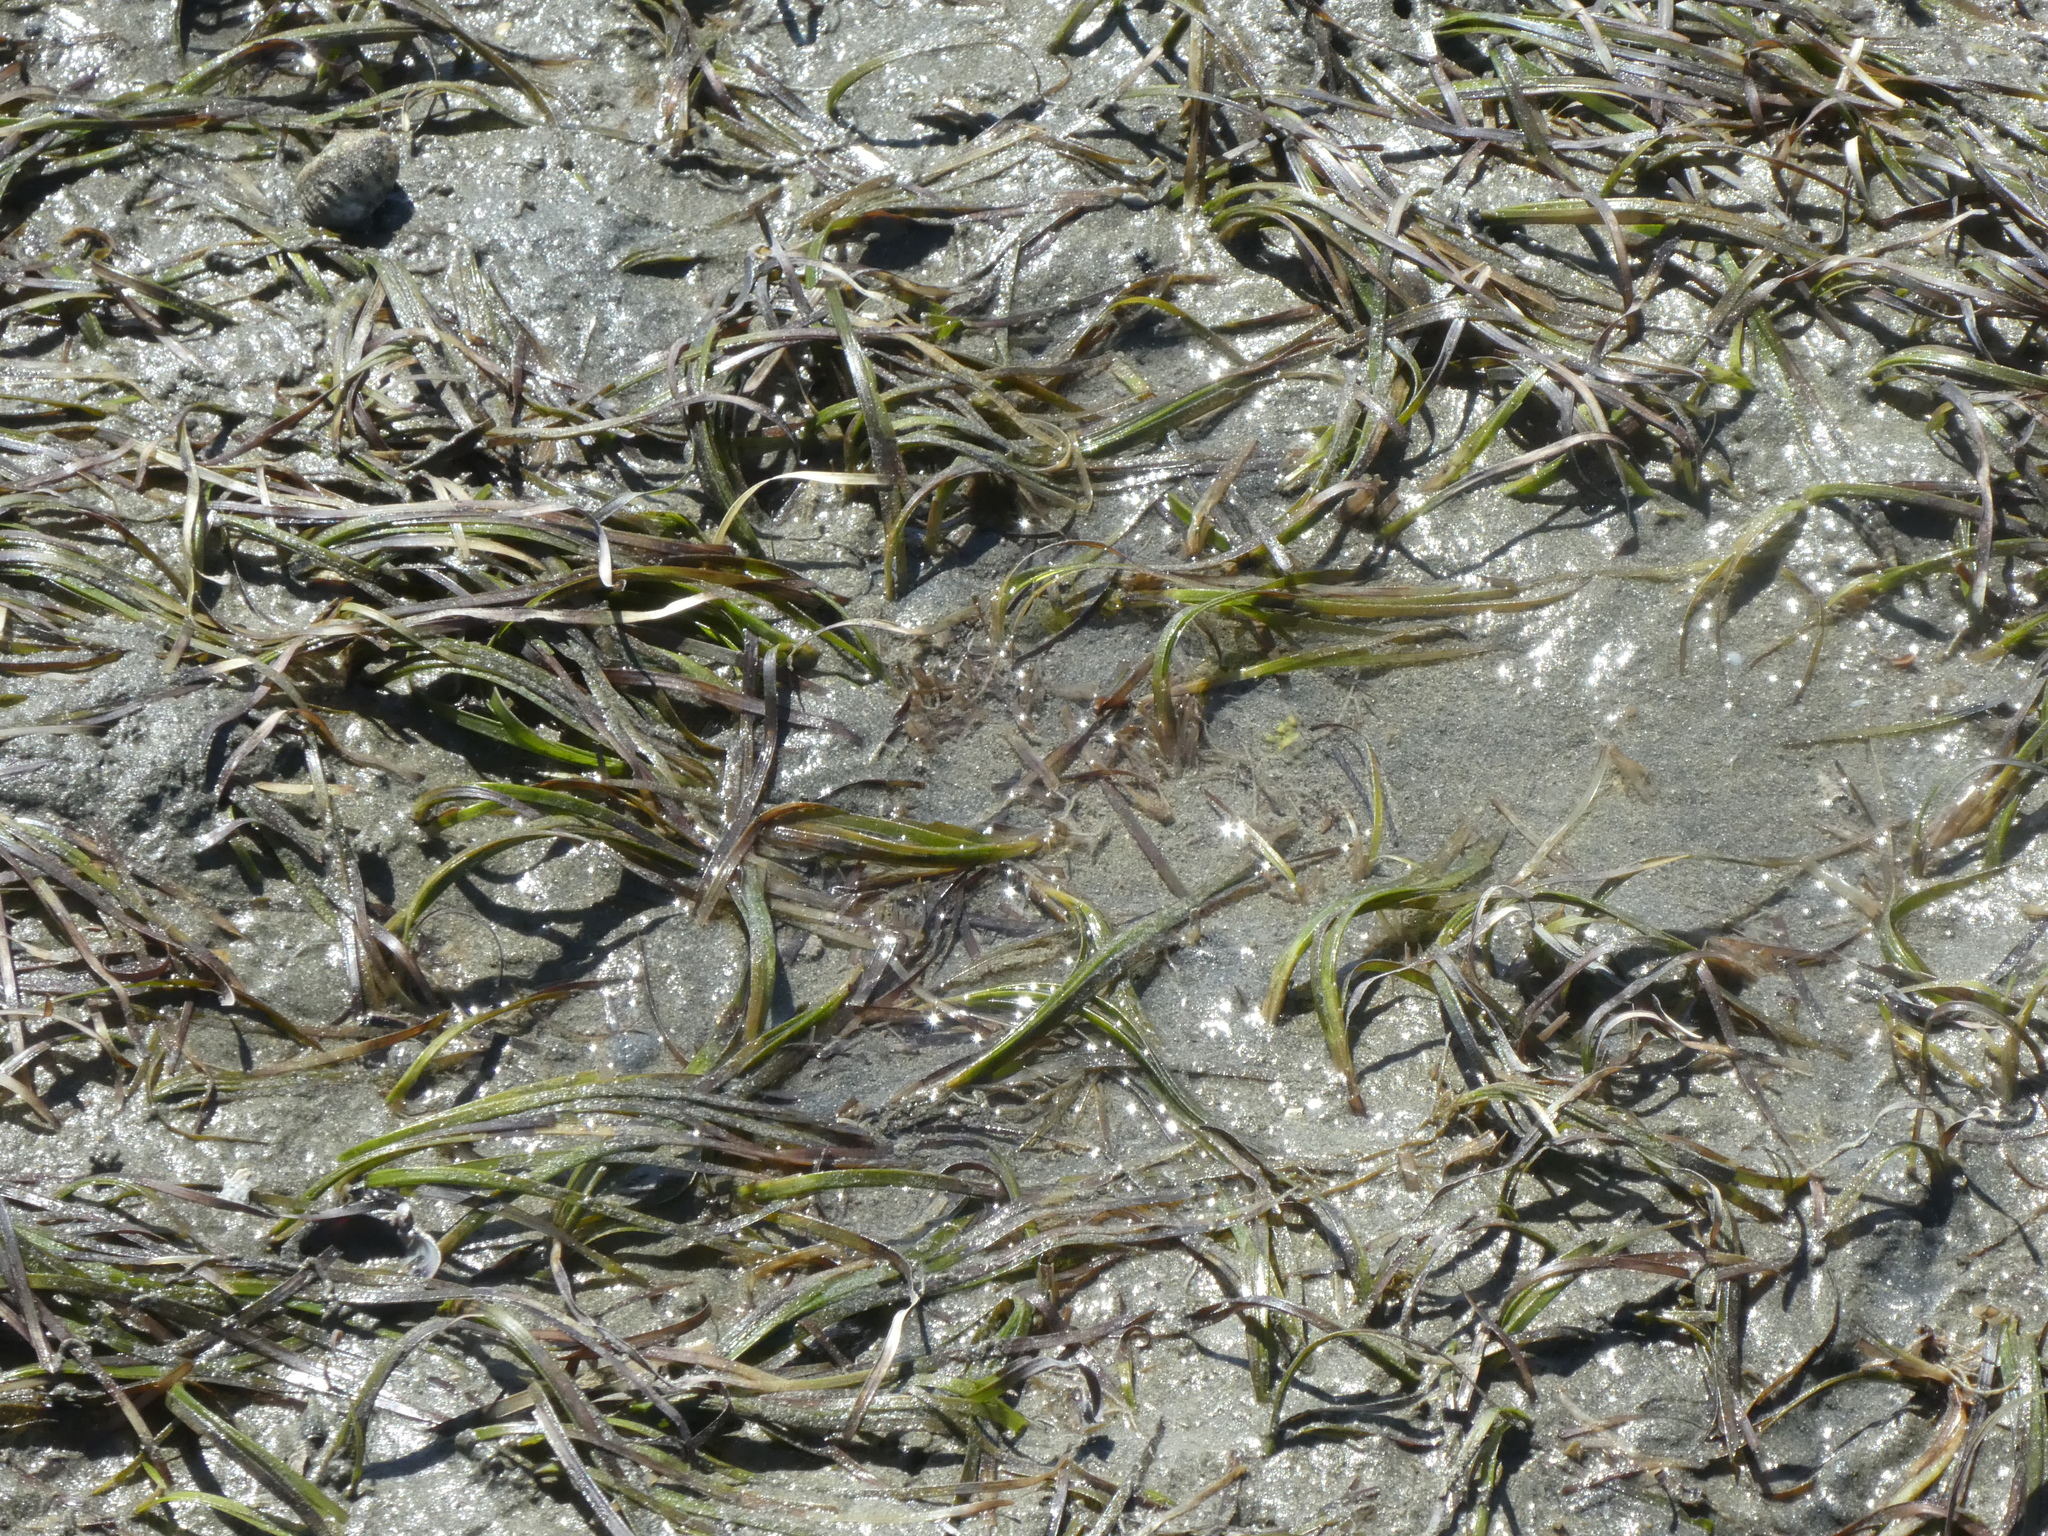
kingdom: Plantae
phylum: Tracheophyta
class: Liliopsida
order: Alismatales
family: Zosteraceae
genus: Zostera
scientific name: Zostera novazelandica
